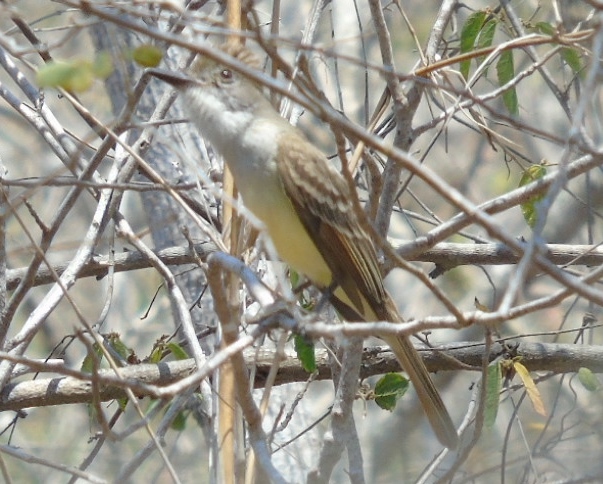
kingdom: Animalia
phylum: Chordata
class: Aves
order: Passeriformes
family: Tyrannidae
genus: Myiarchus
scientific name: Myiarchus
